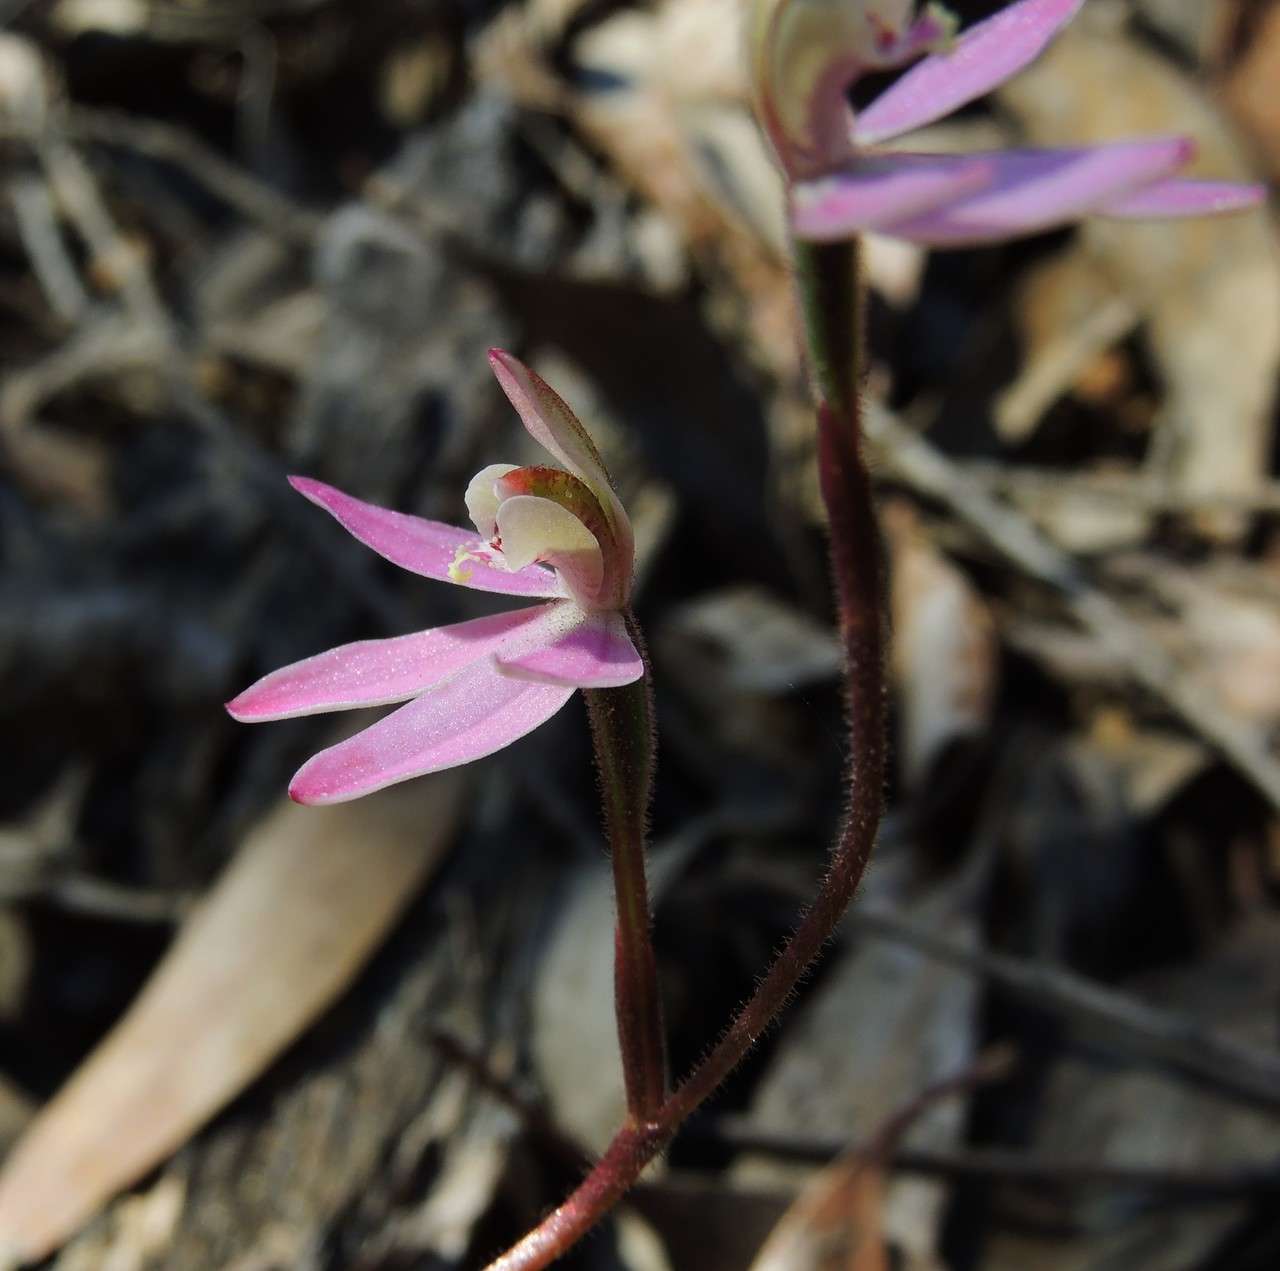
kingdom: Plantae
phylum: Tracheophyta
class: Liliopsida
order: Asparagales
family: Orchidaceae
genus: Caladenia
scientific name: Caladenia carnea
